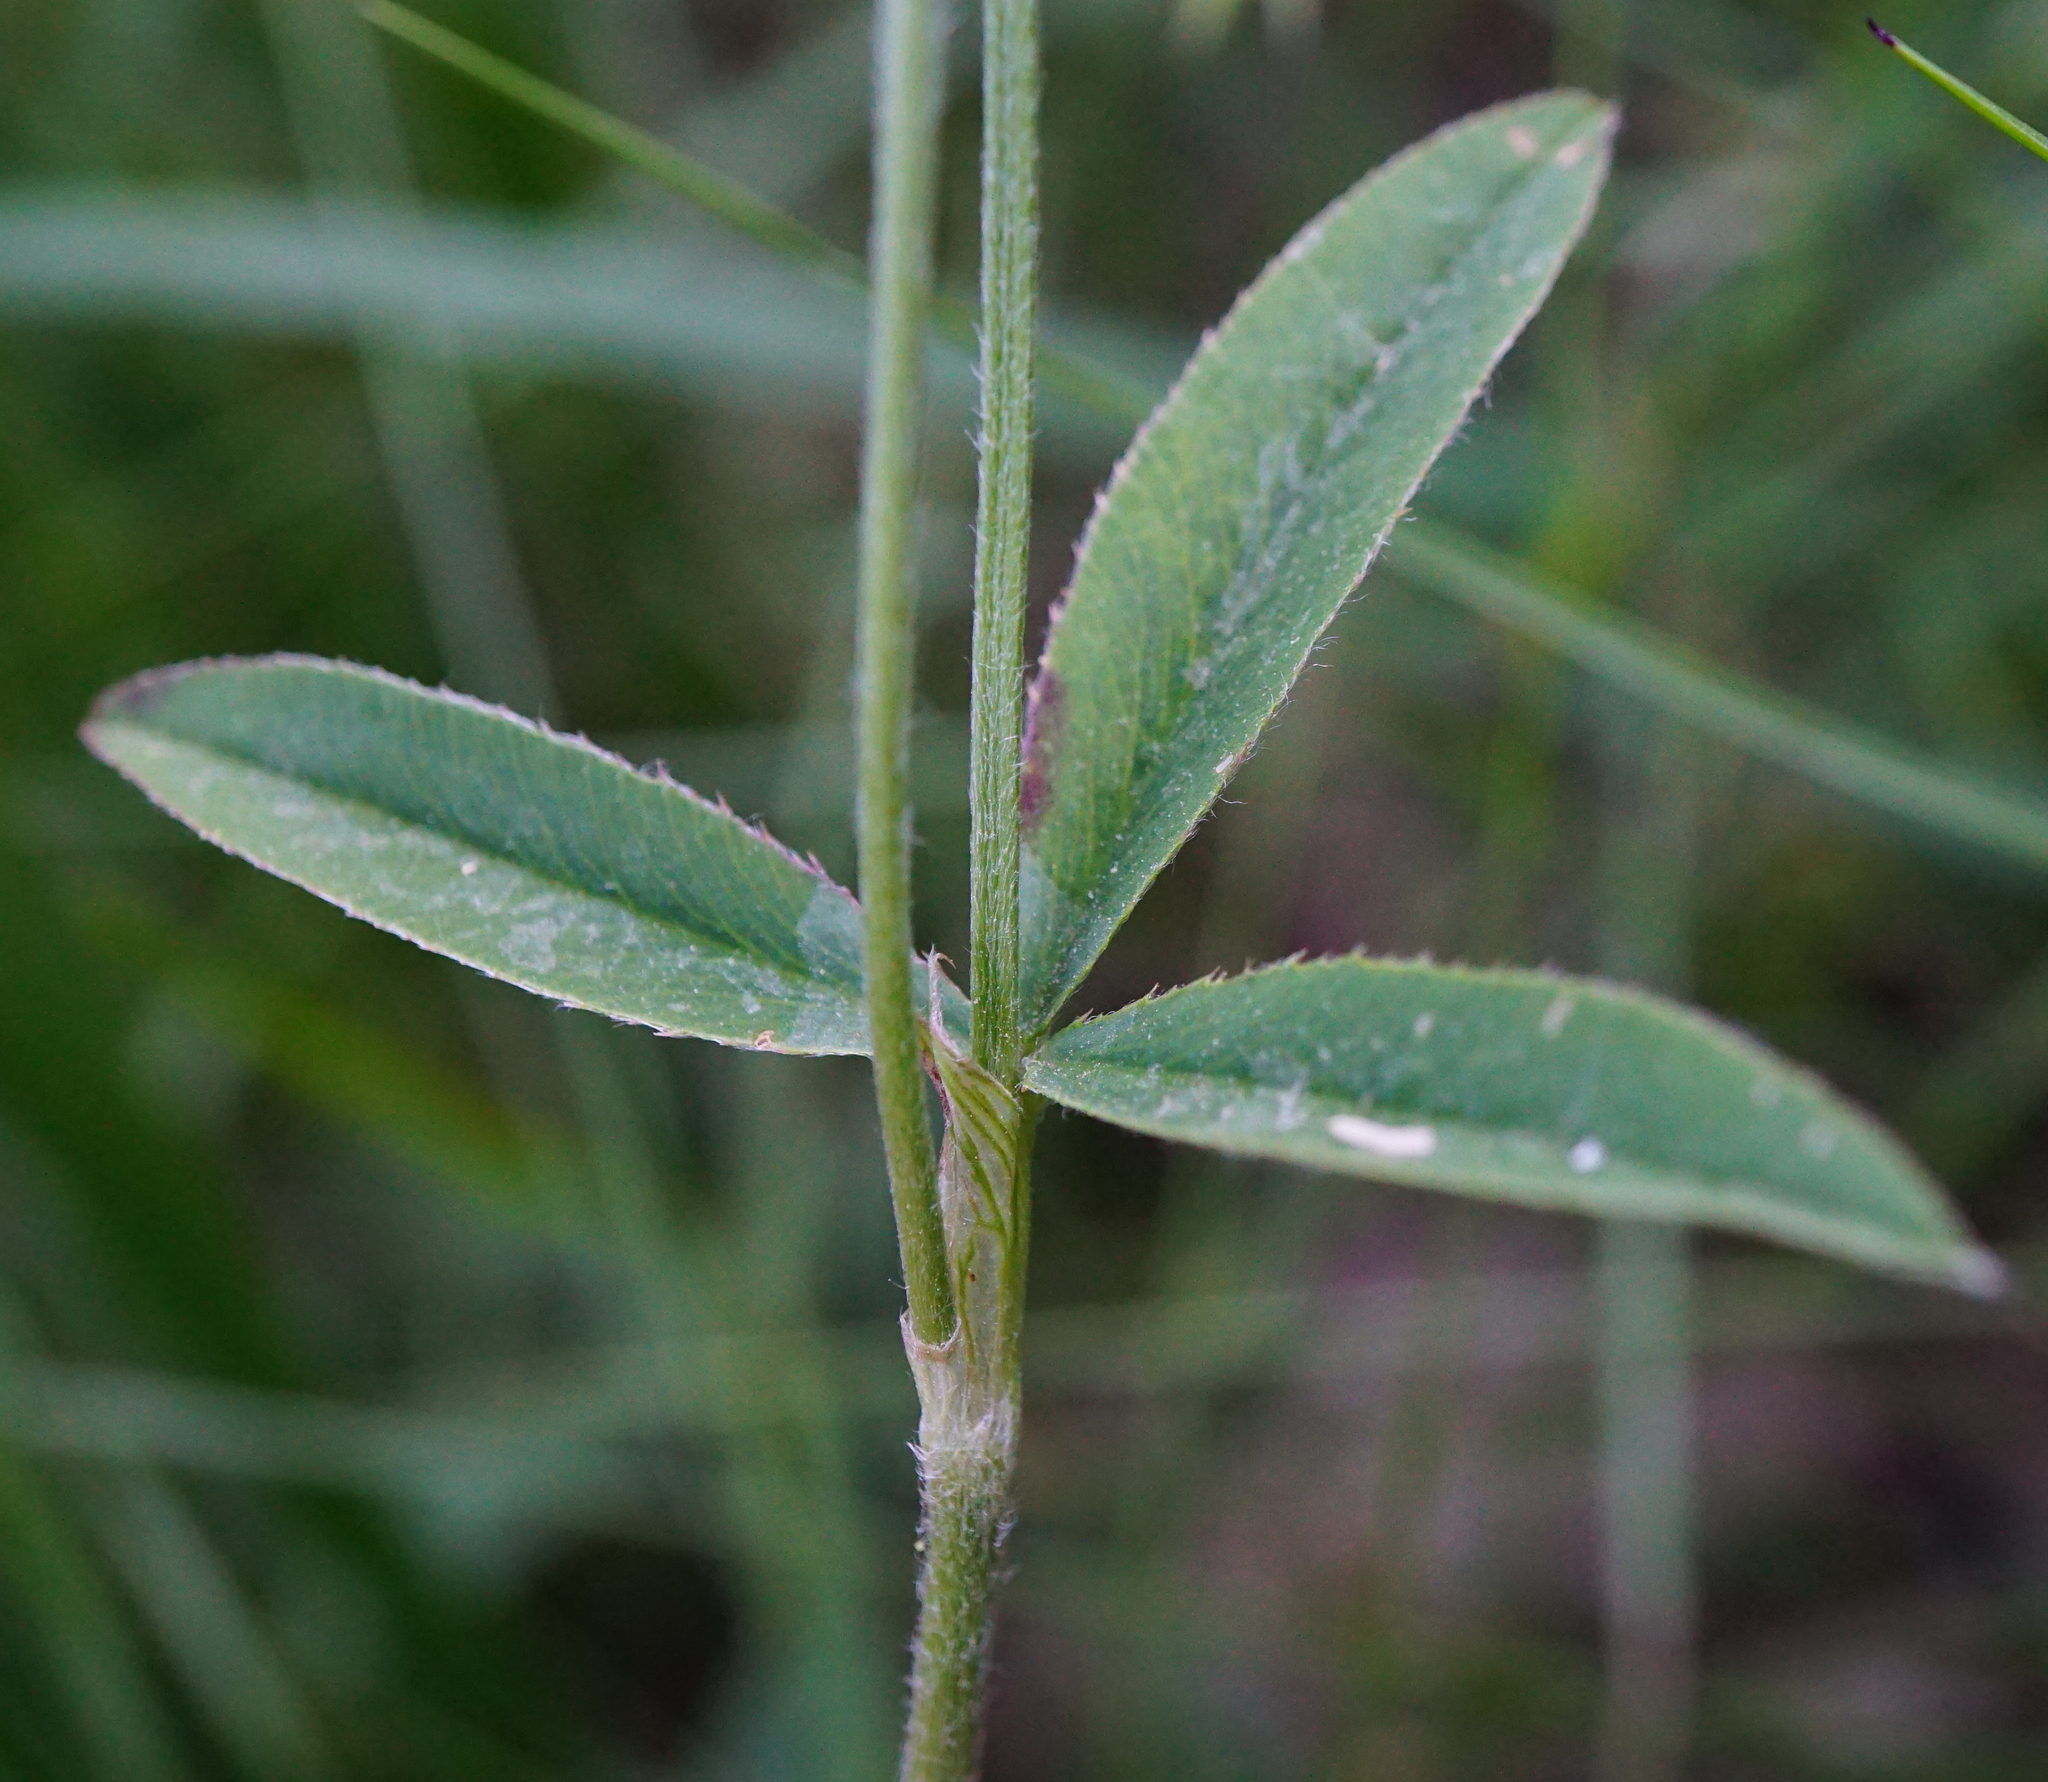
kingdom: Plantae
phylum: Tracheophyta
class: Magnoliopsida
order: Fabales
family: Fabaceae
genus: Trifolium
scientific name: Trifolium montanum
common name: Mountain clover
